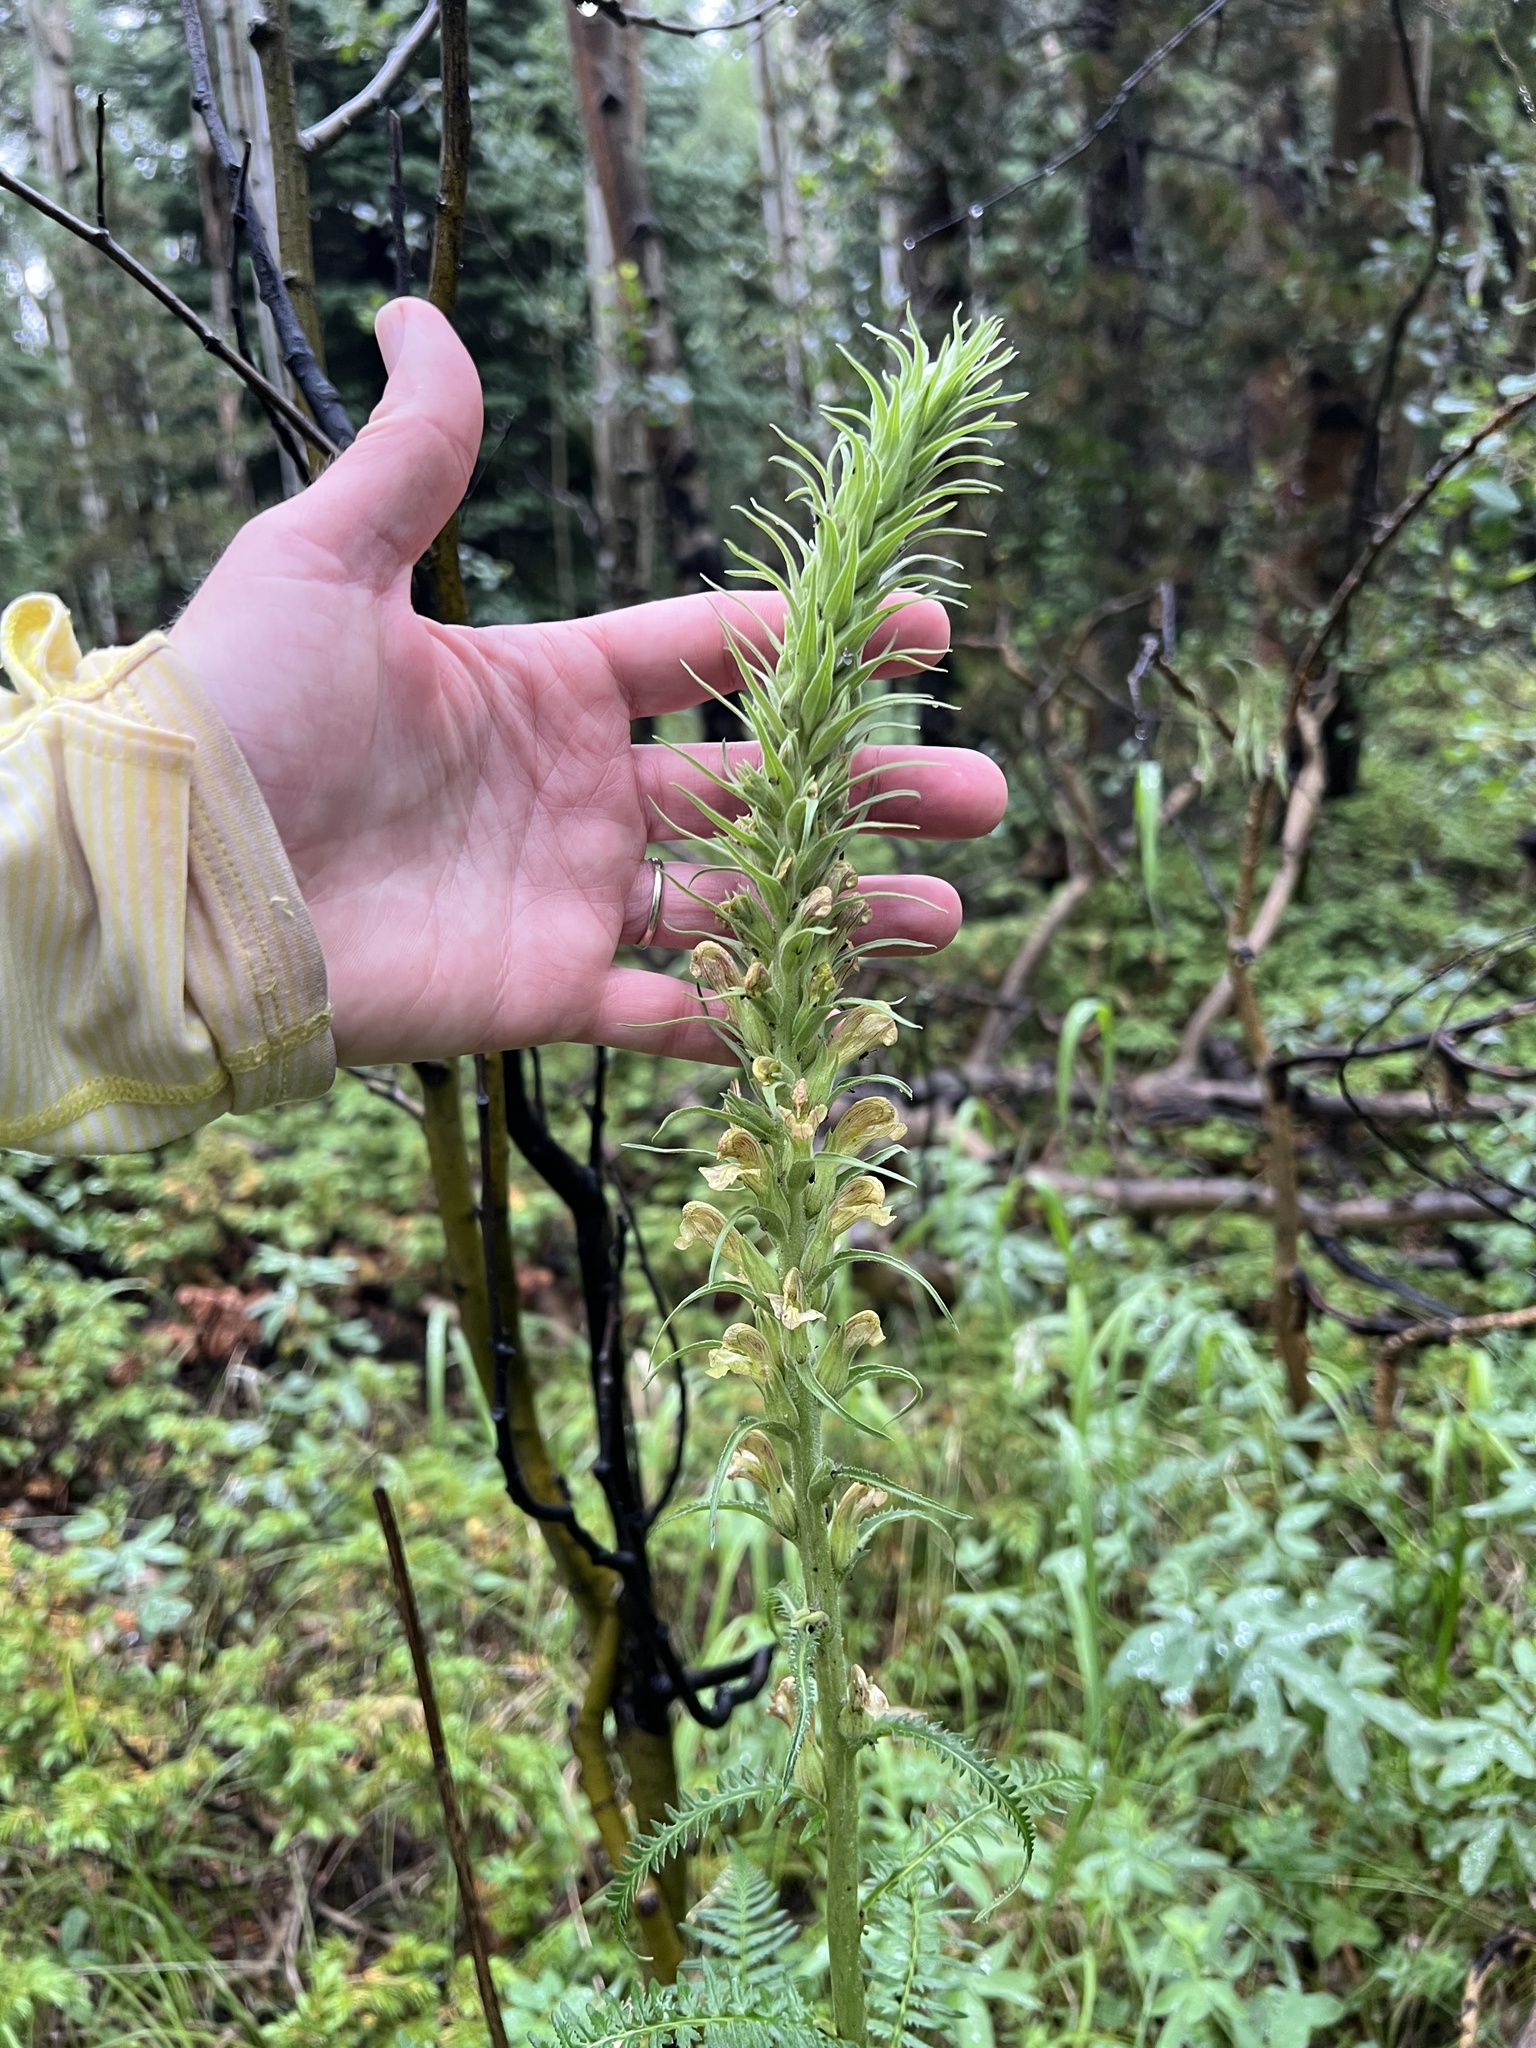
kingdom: Plantae
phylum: Tracheophyta
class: Magnoliopsida
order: Lamiales
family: Orobanchaceae
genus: Pedicularis
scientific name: Pedicularis procera
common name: Gray's lousewort
